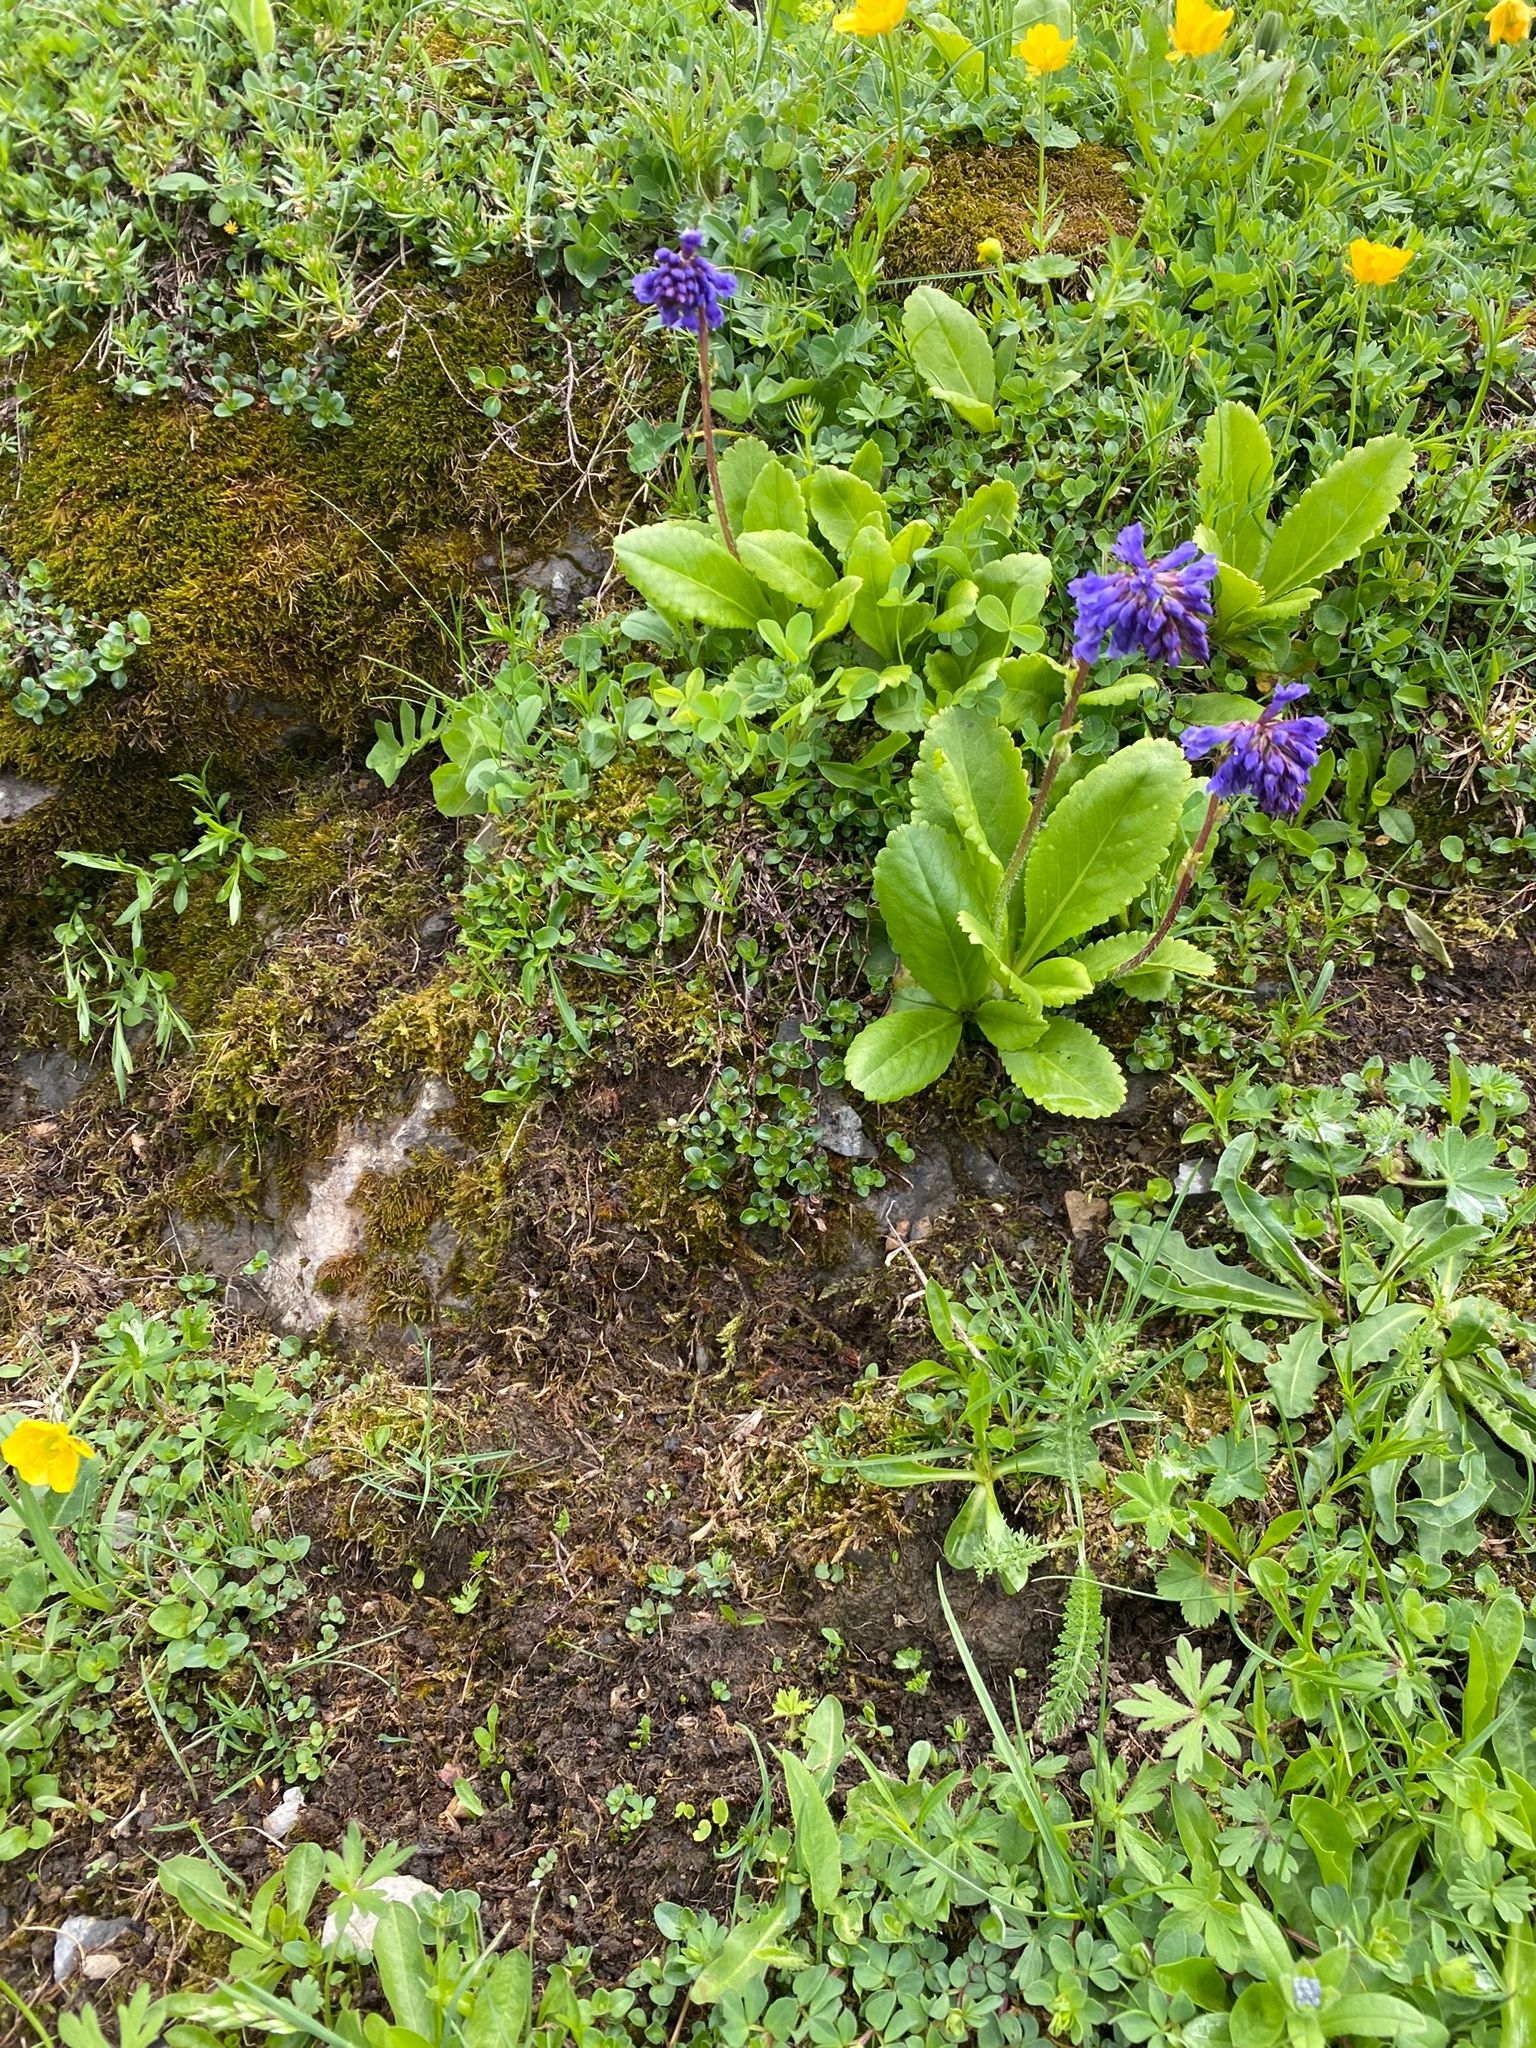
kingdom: Plantae
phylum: Tracheophyta
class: Magnoliopsida
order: Lamiales
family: Plantaginaceae
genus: Wulfenia
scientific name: Wulfenia carinthiaca
